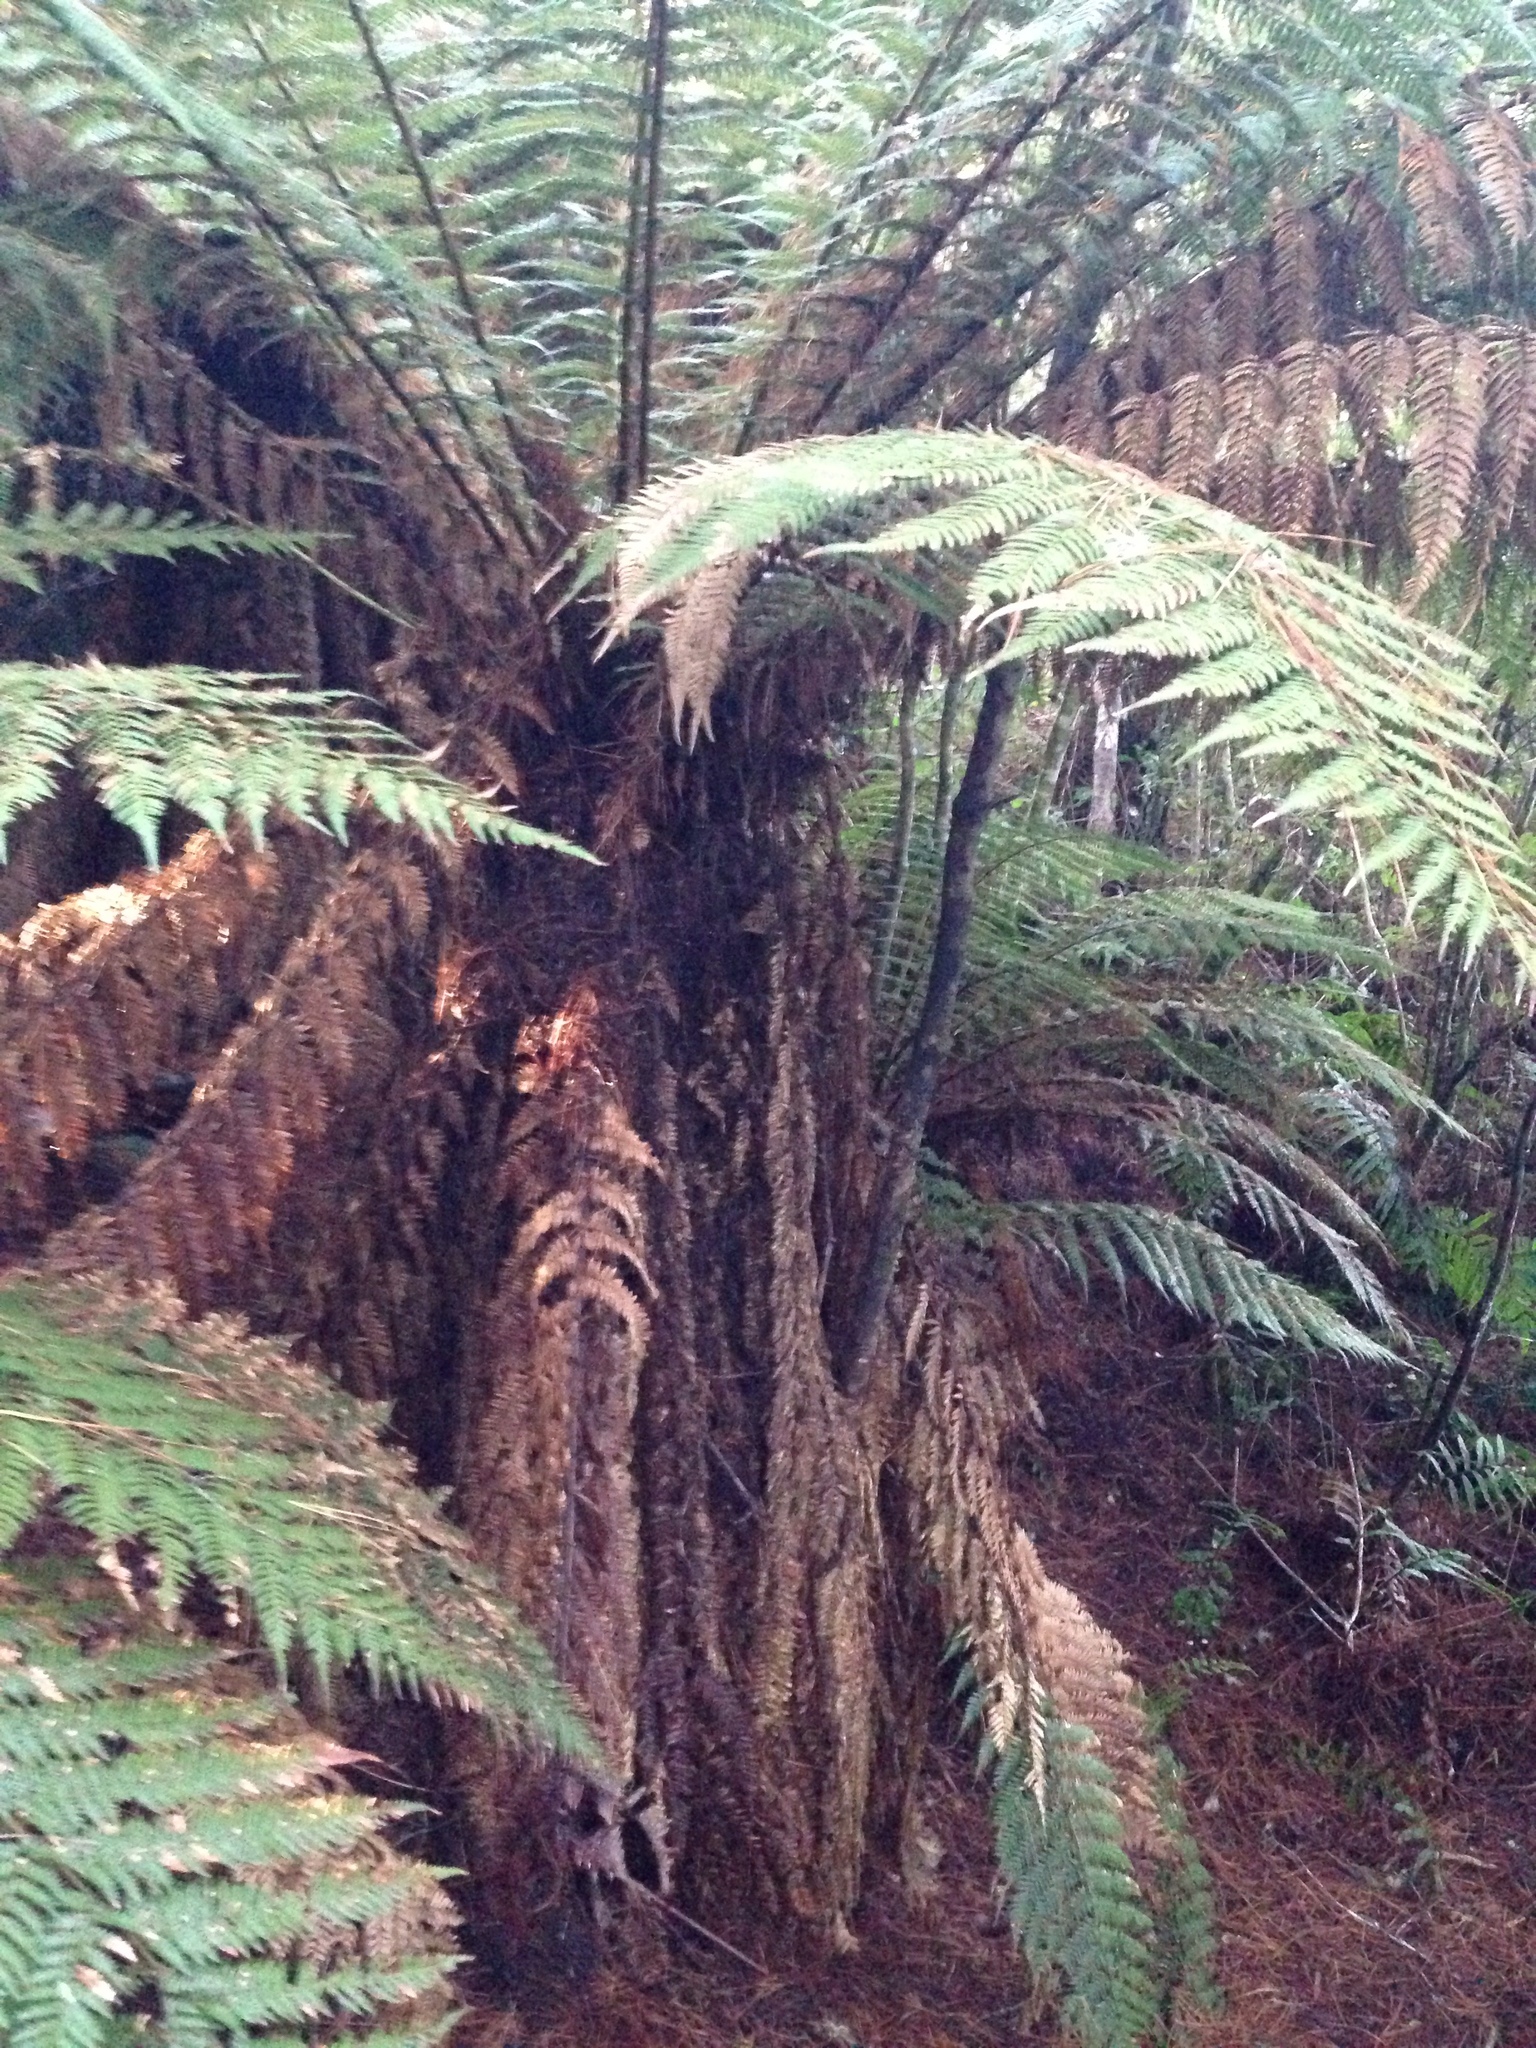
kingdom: Plantae
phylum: Tracheophyta
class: Polypodiopsida
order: Cyatheales
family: Dicksoniaceae
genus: Dicksonia
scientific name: Dicksonia fibrosa
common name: Golden tree fern
